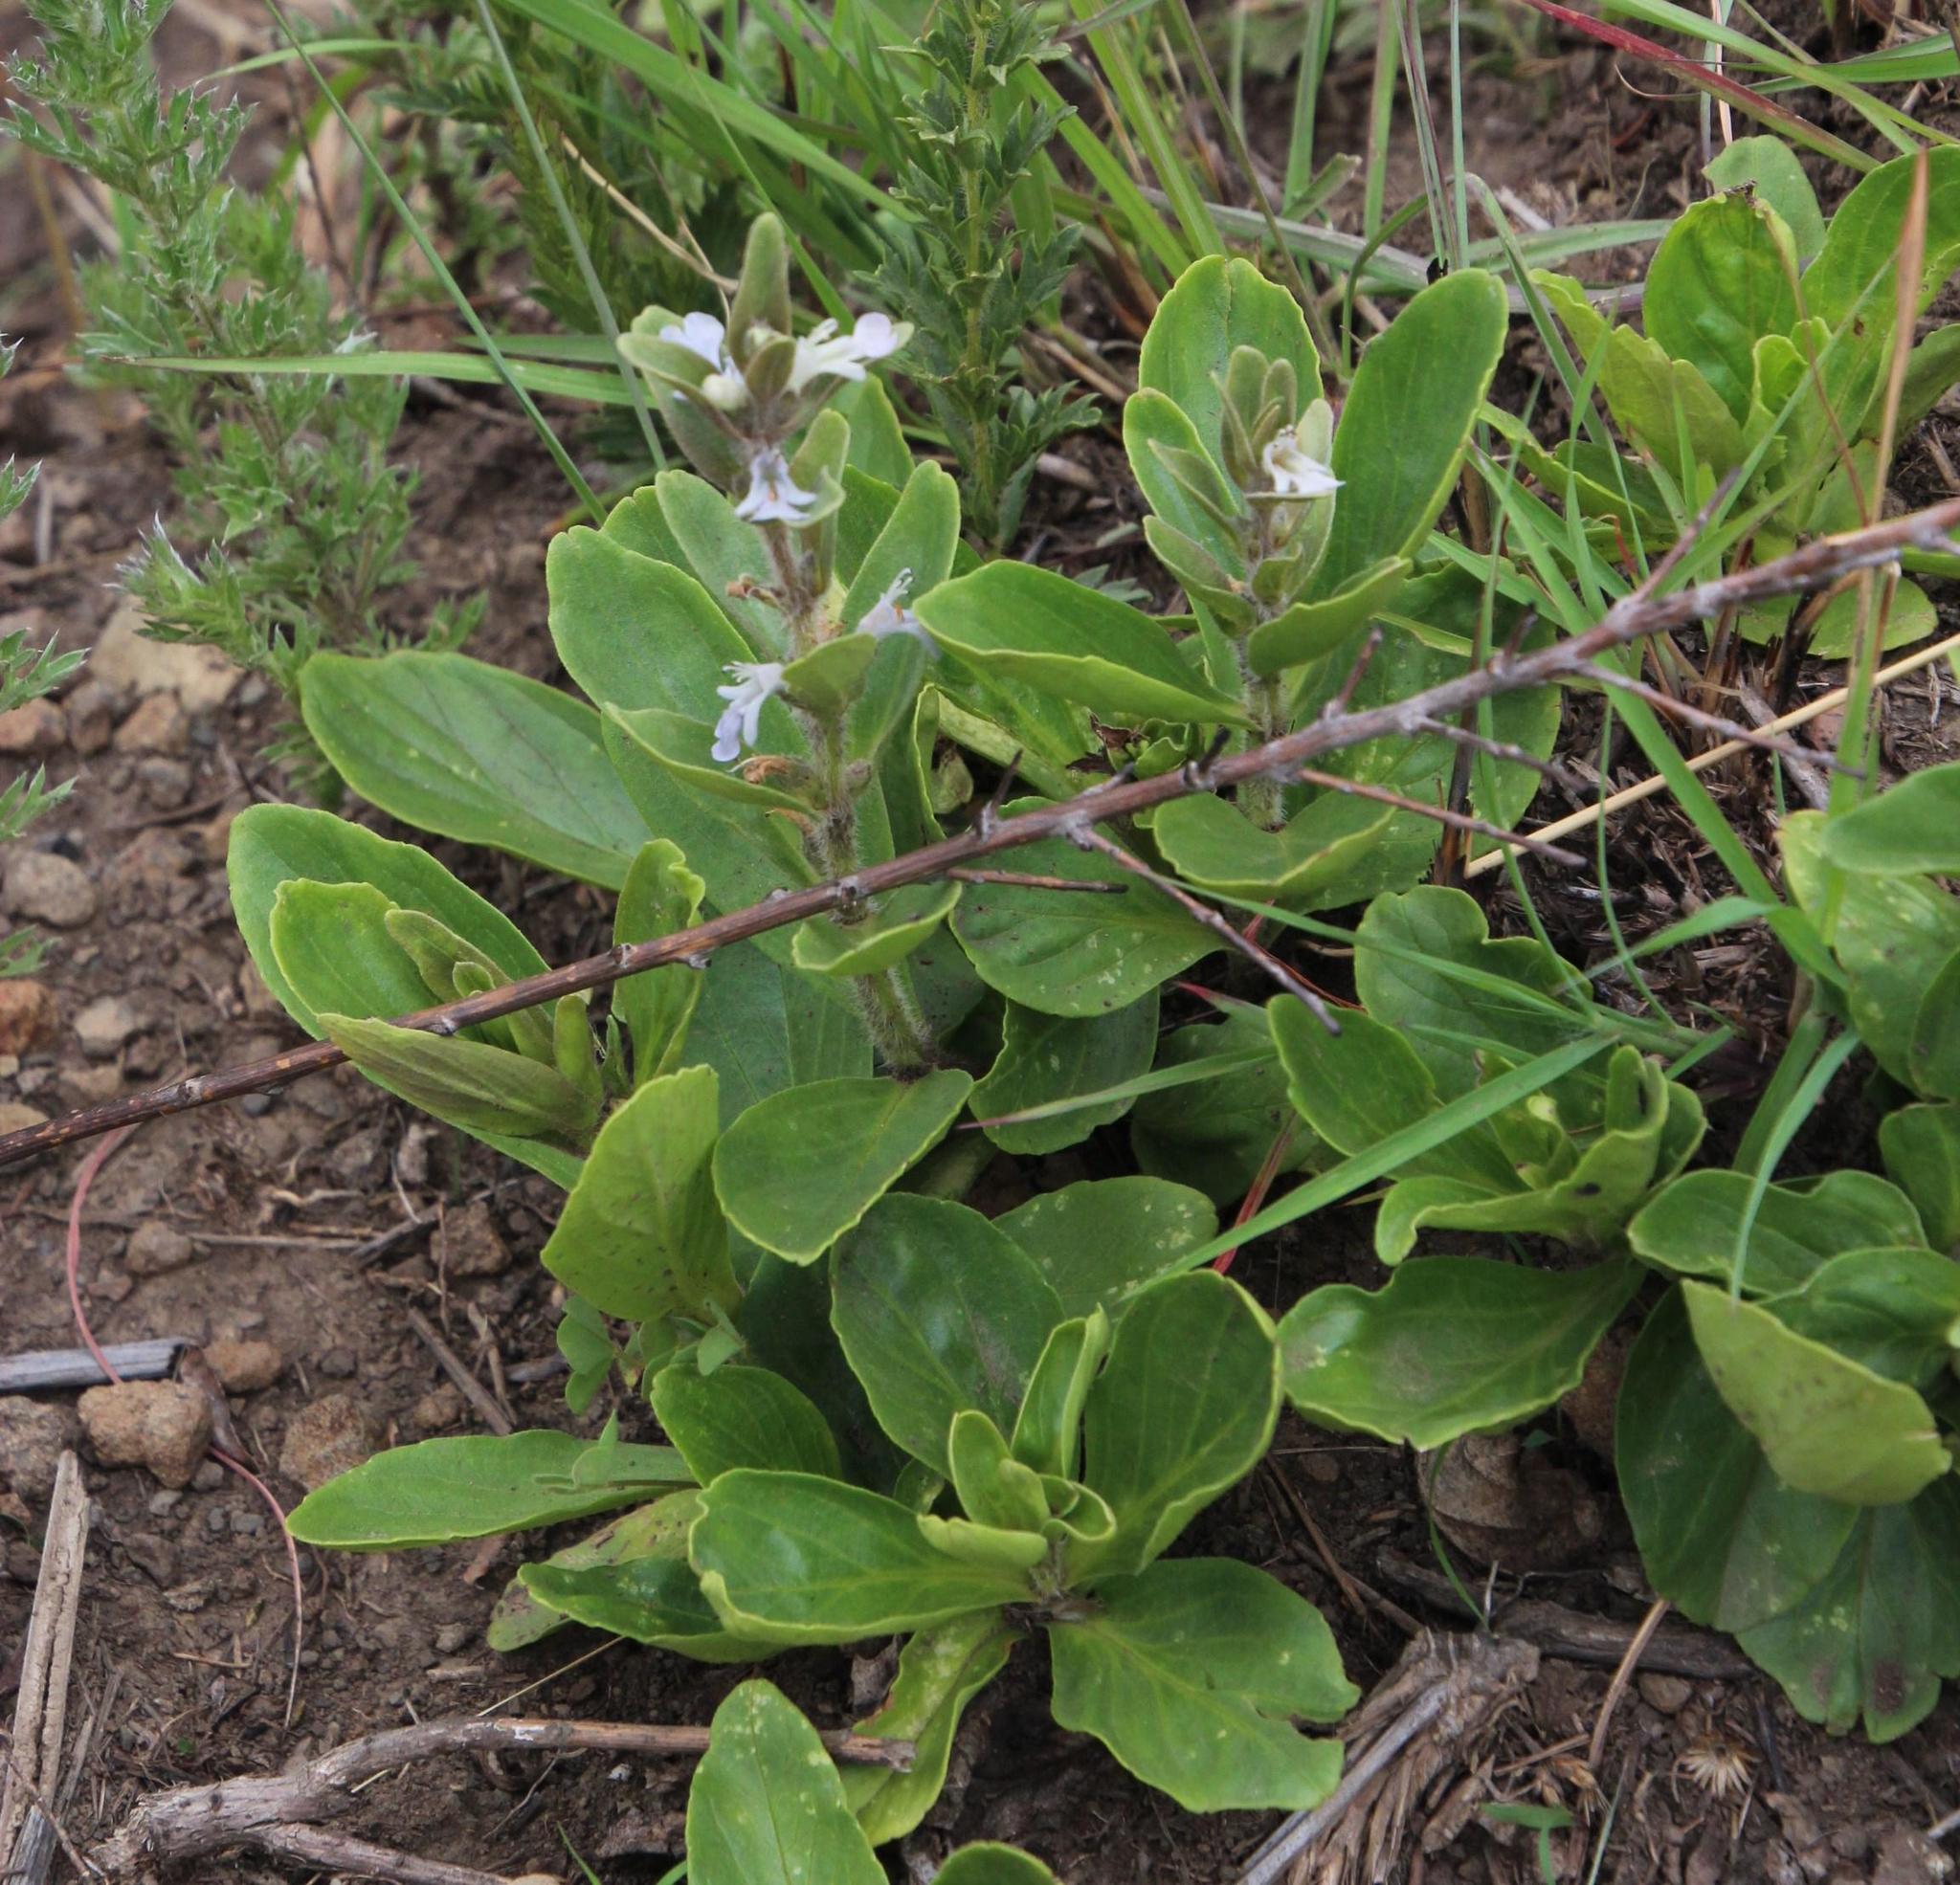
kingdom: Plantae
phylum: Tracheophyta
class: Magnoliopsida
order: Lamiales
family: Lamiaceae
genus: Ajuga
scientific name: Ajuga ophrydis
